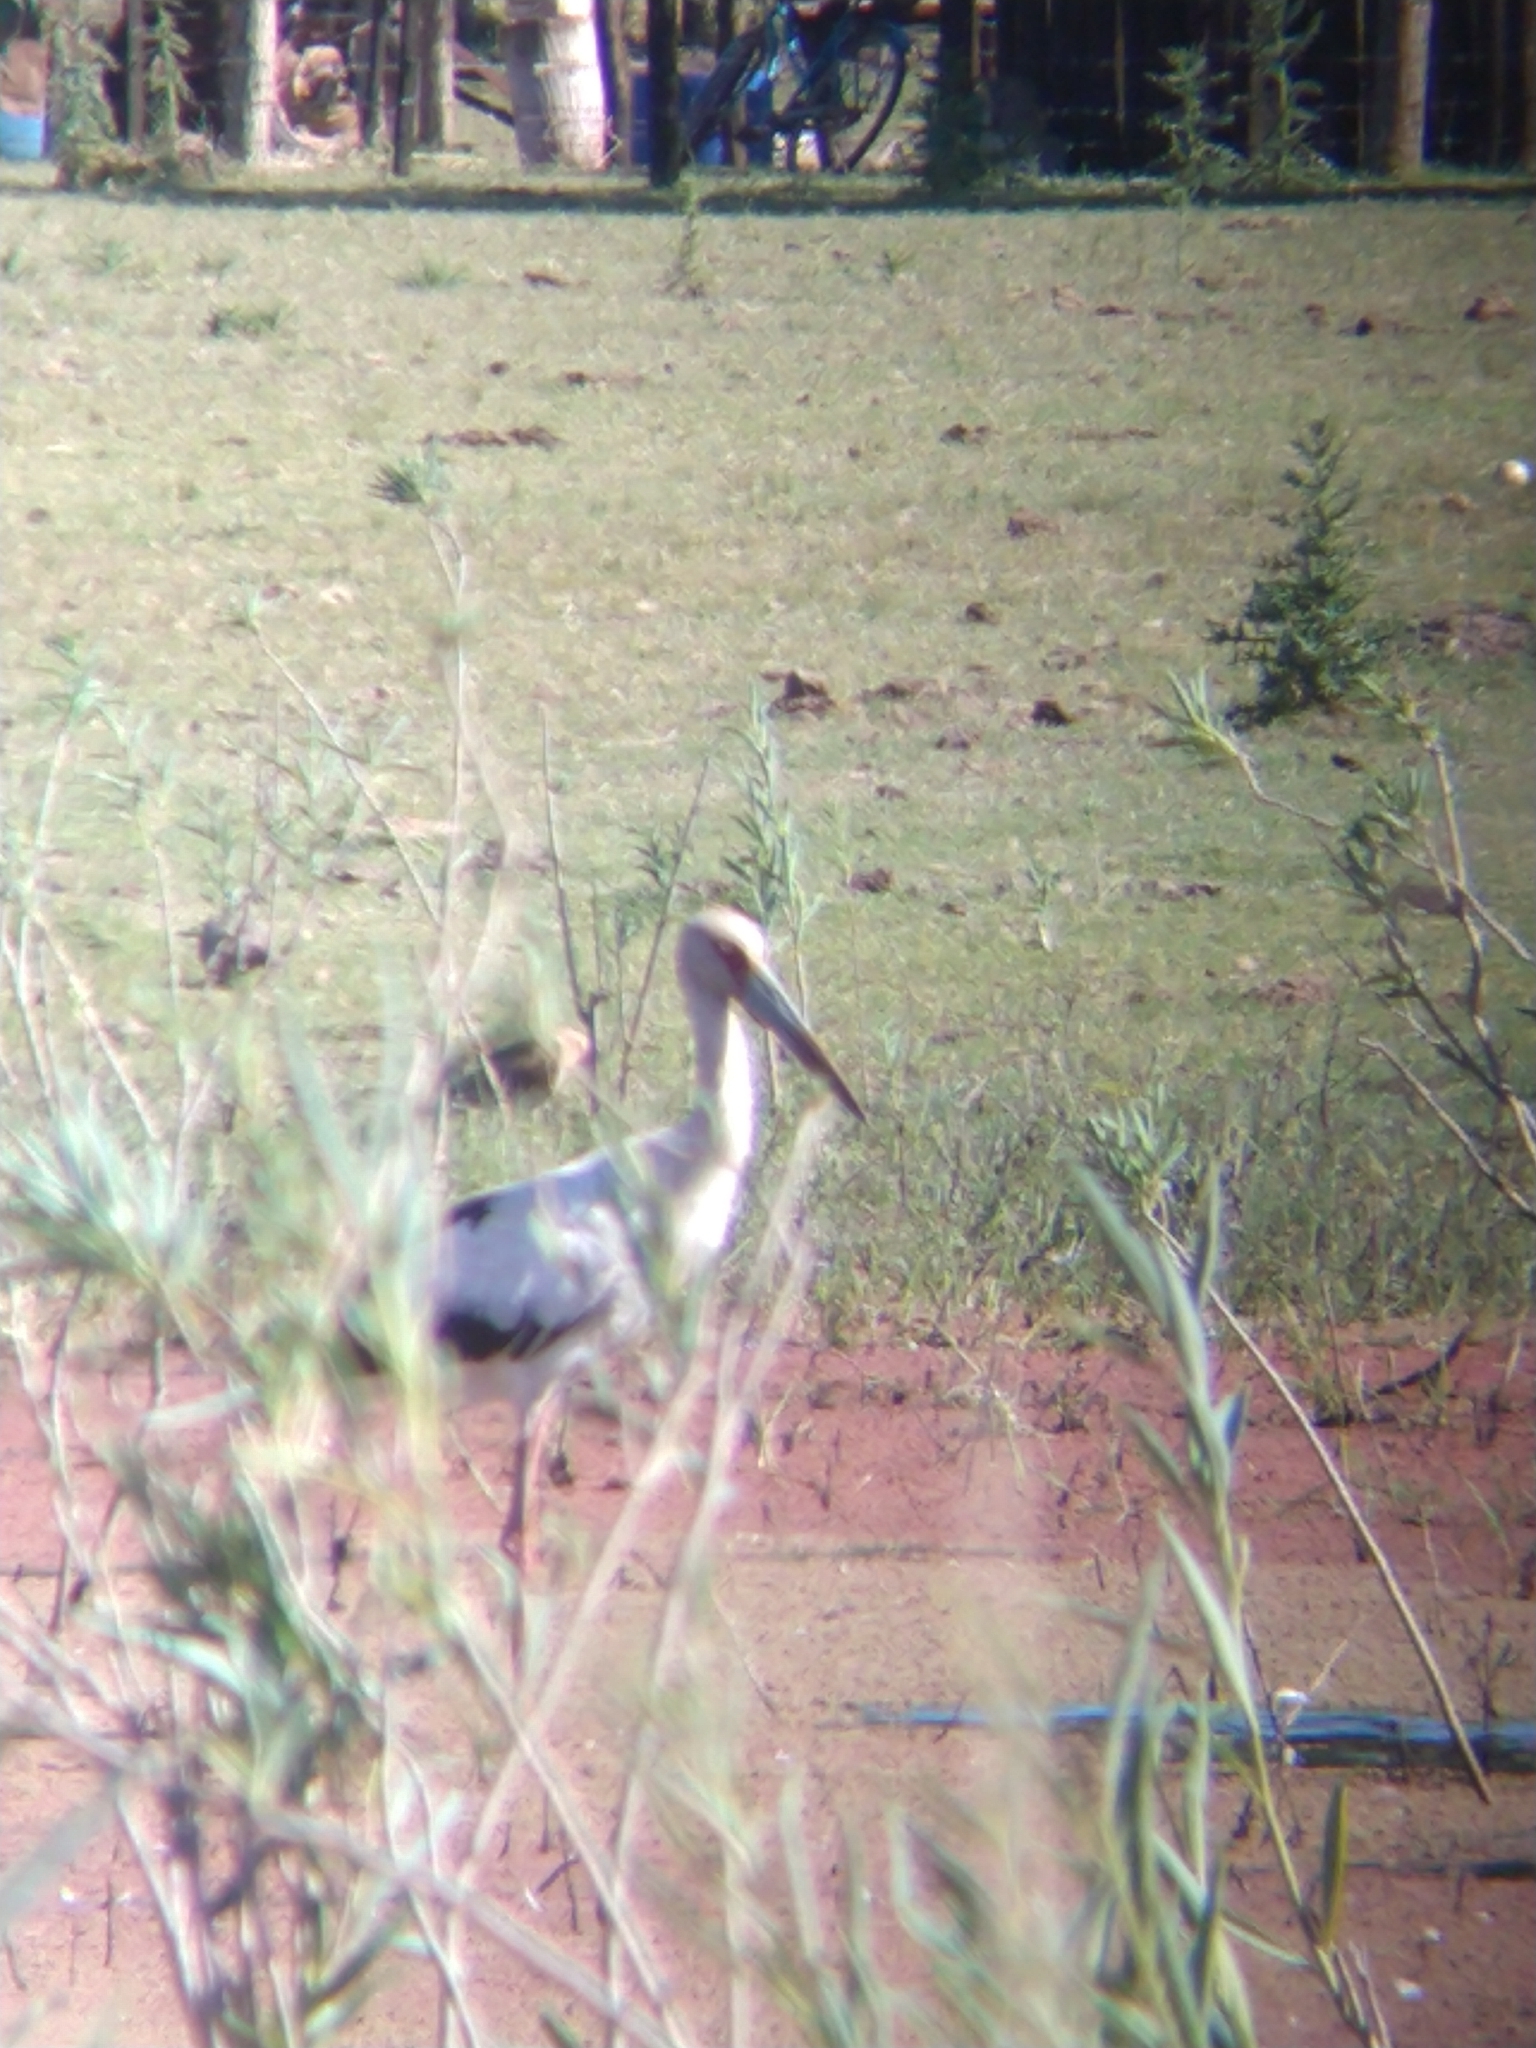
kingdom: Animalia
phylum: Chordata
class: Aves
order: Ciconiiformes
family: Ciconiidae
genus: Ciconia
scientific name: Ciconia maguari
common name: Maguari stork
